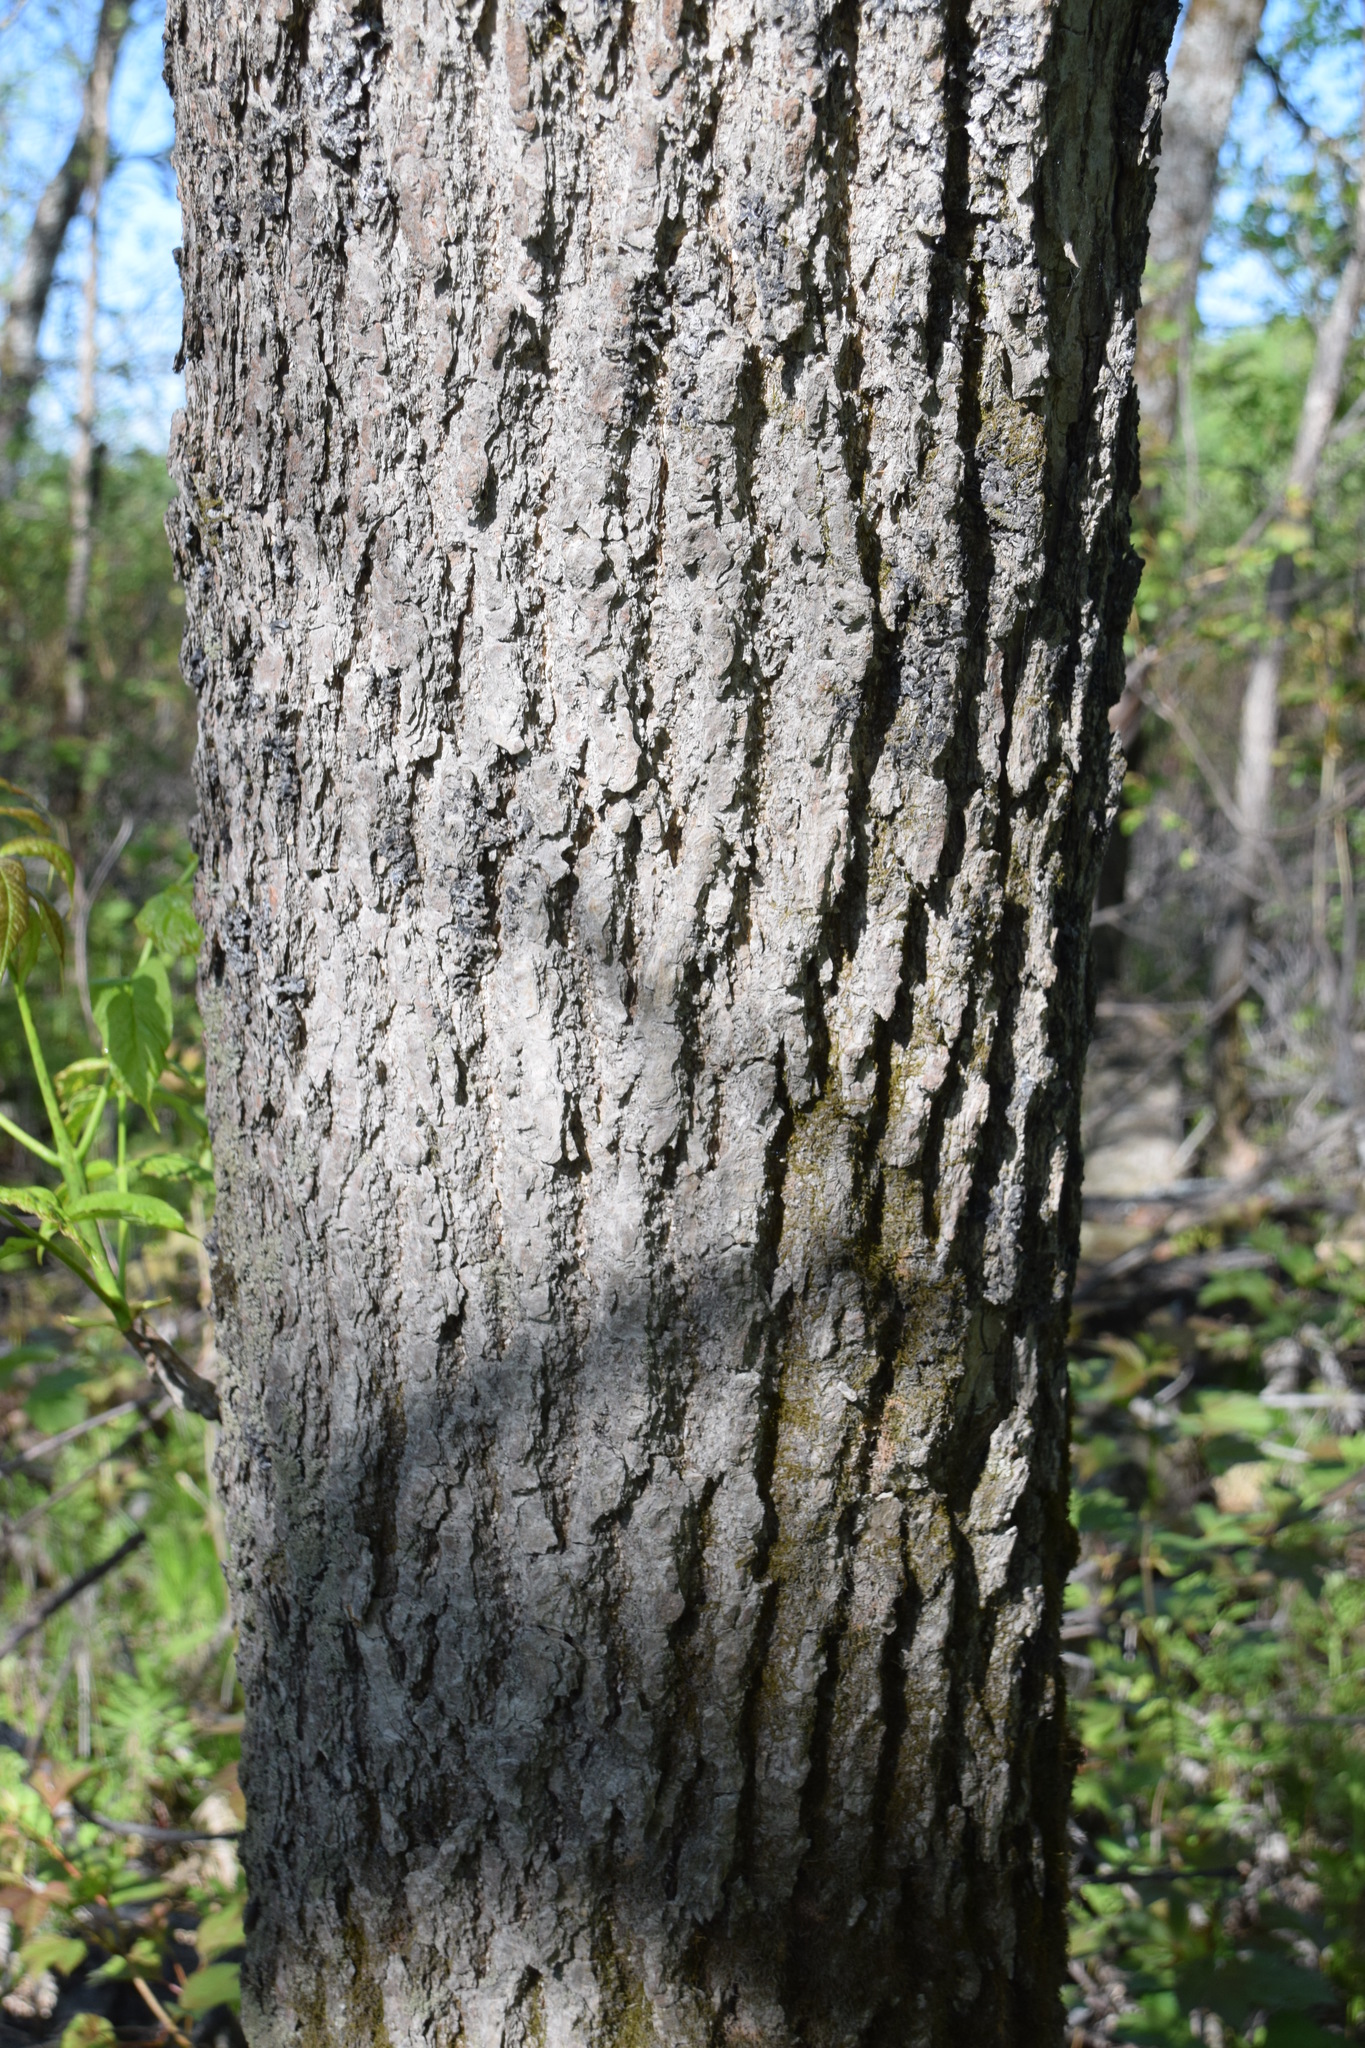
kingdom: Plantae
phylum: Tracheophyta
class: Magnoliopsida
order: Lamiales
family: Oleaceae
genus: Fraxinus
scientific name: Fraxinus nigra
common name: Black ash
